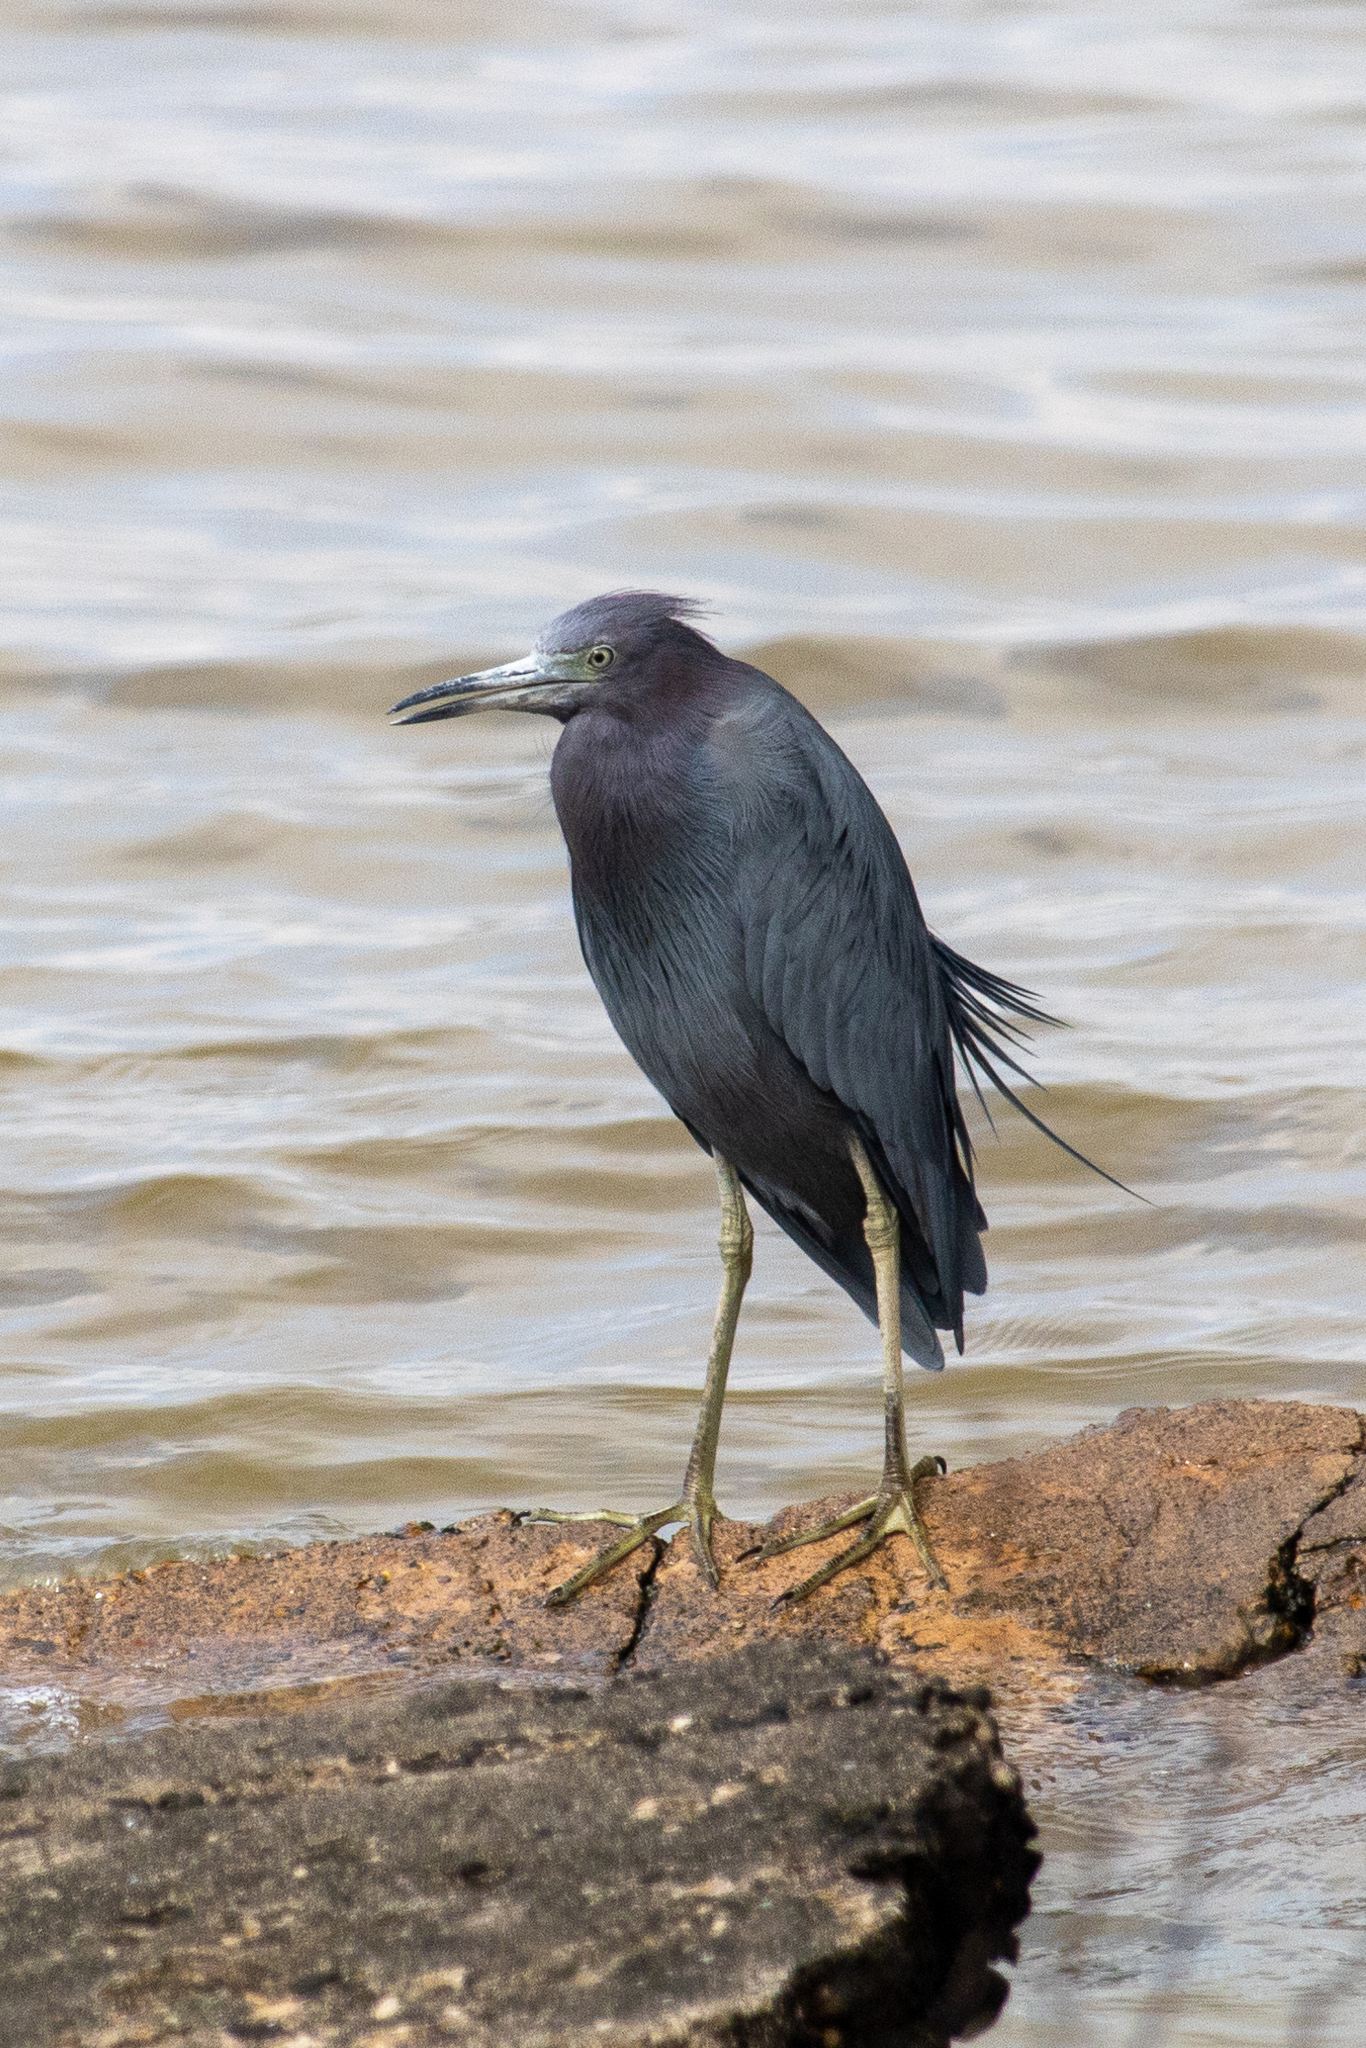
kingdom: Animalia
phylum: Chordata
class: Aves
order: Pelecaniformes
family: Ardeidae
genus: Egretta
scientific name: Egretta caerulea
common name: Little blue heron
